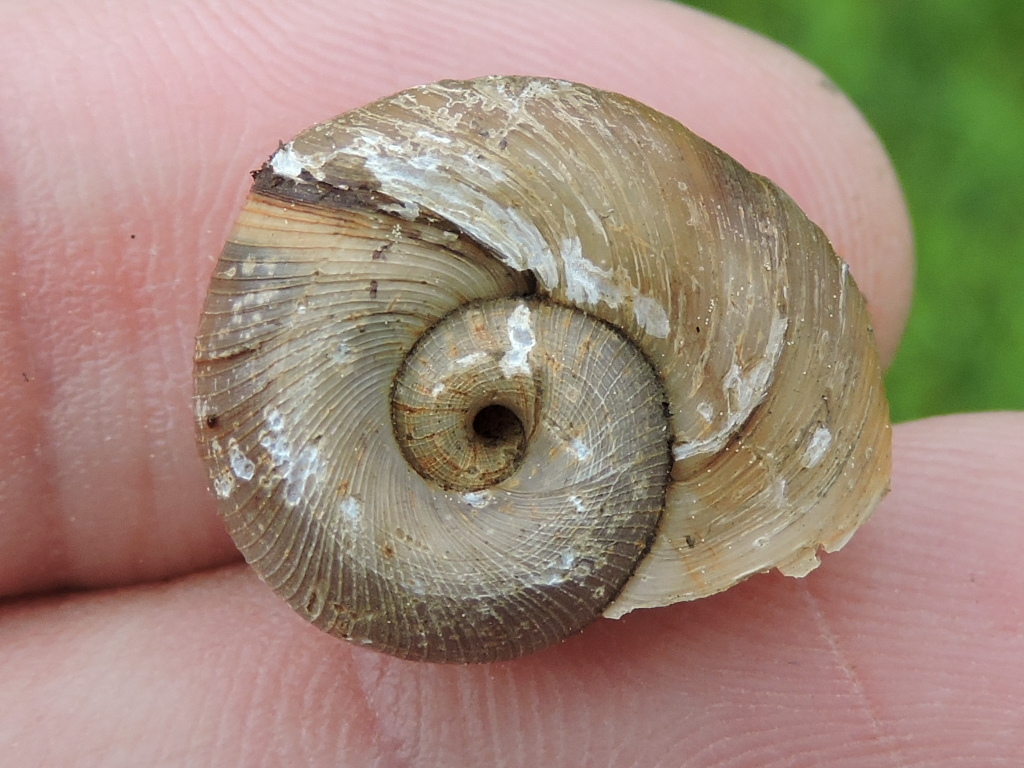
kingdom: Animalia
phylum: Mollusca
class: Gastropoda
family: Planorbidae
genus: Planorbella
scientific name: Planorbella trivolvis
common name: Marsh rams-horn
